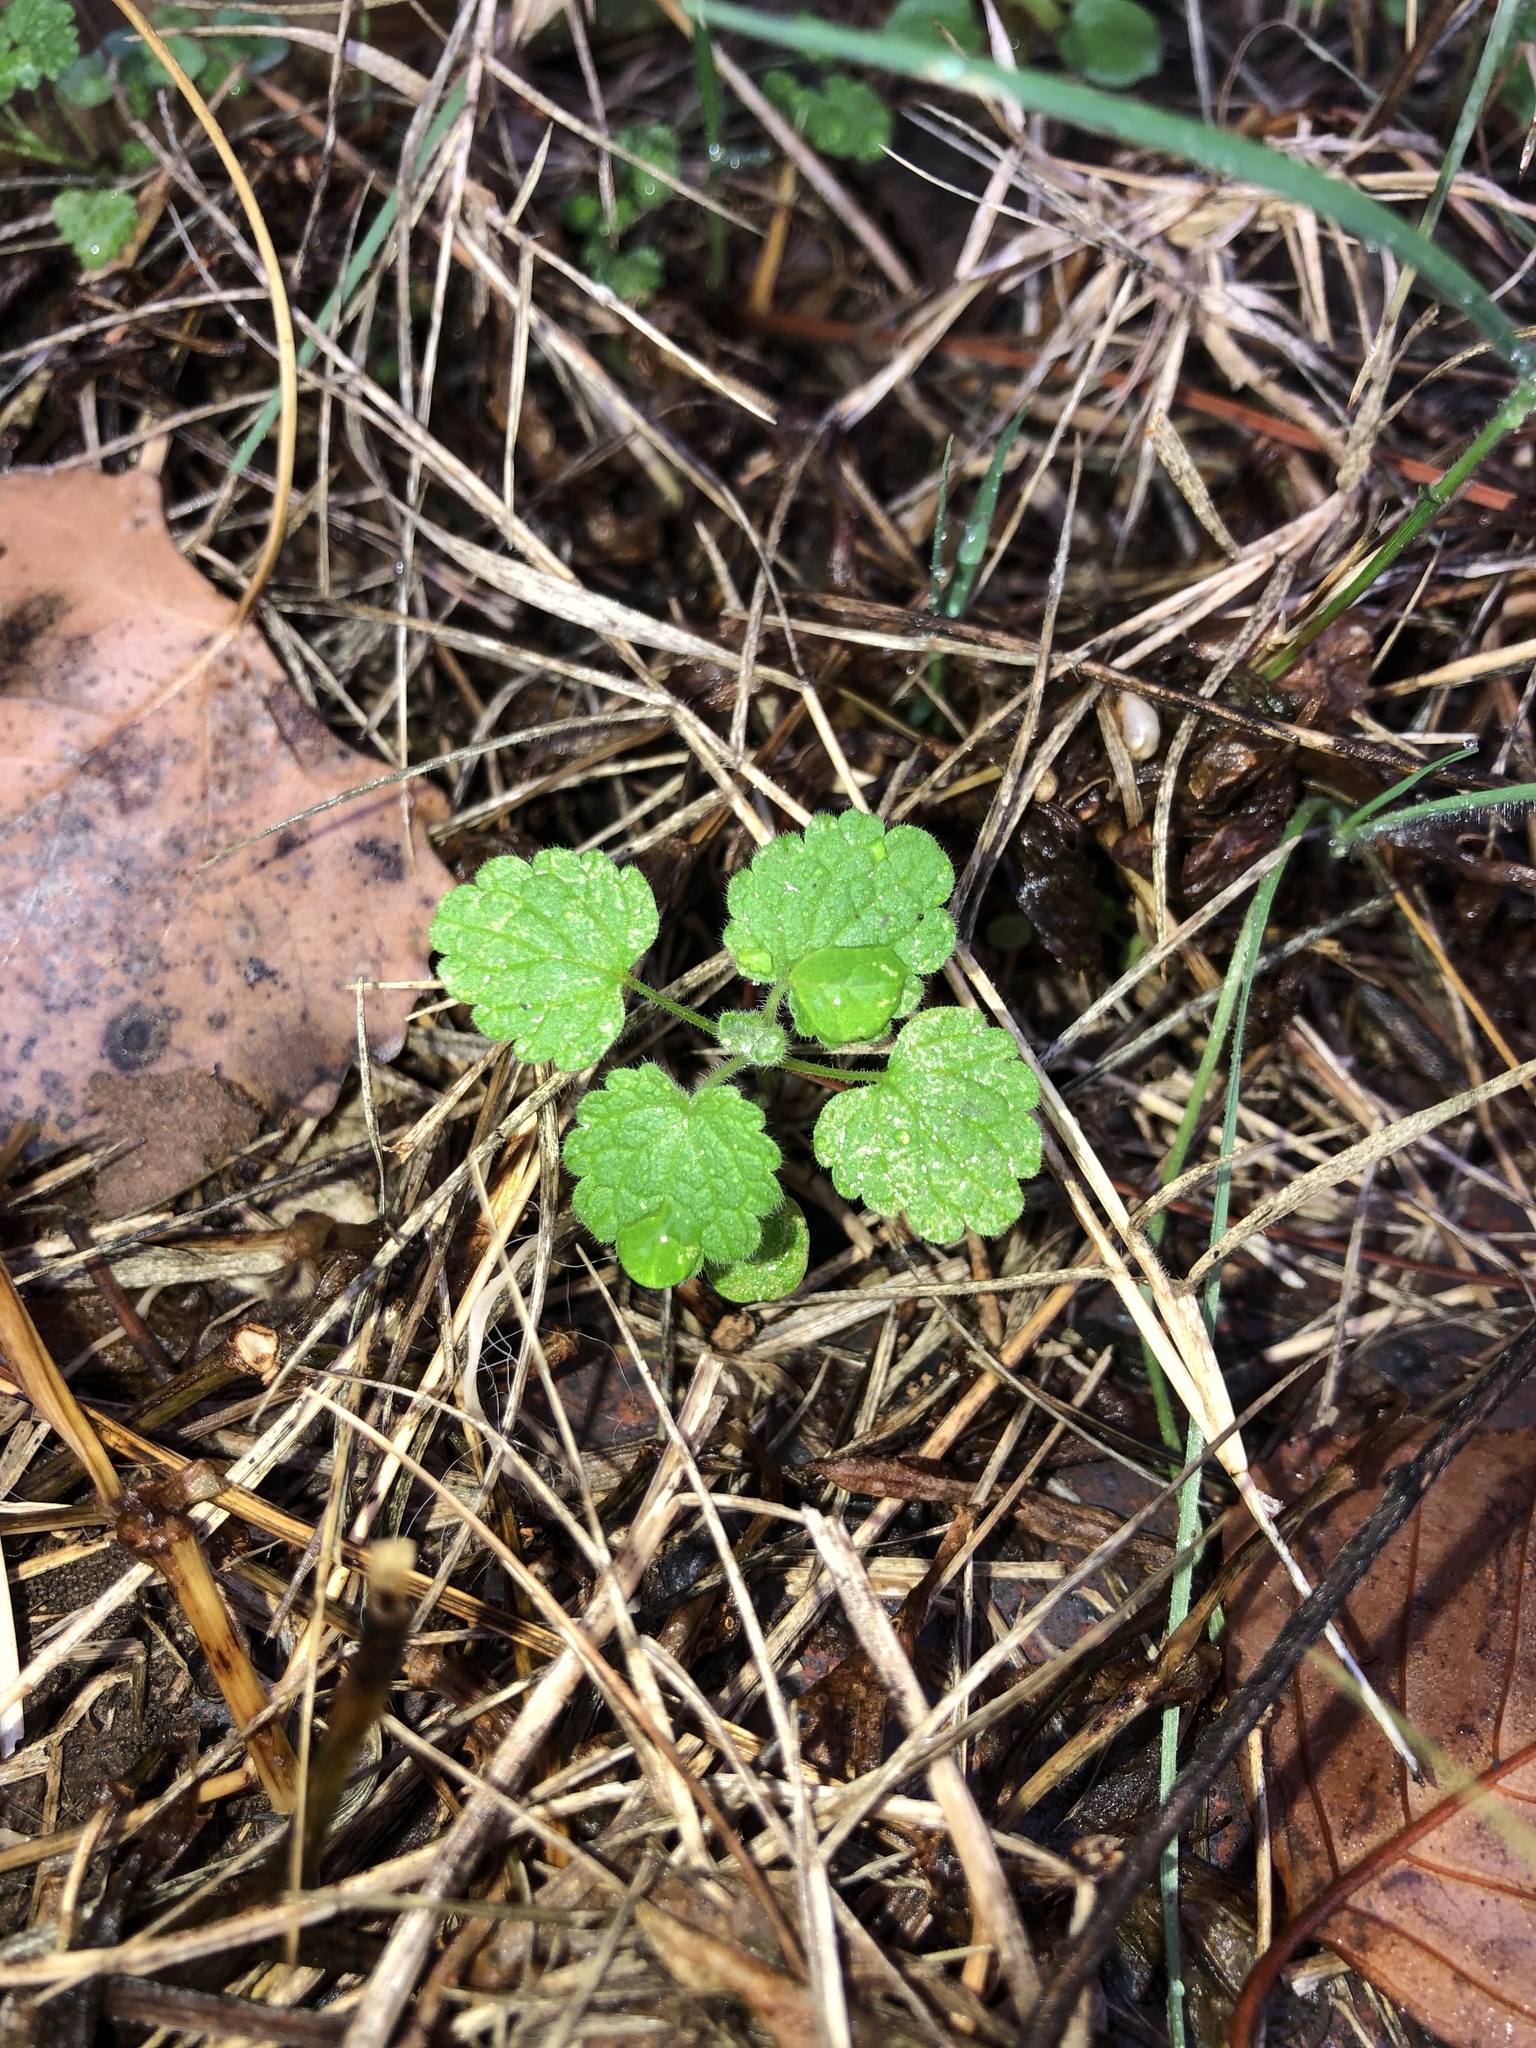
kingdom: Plantae
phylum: Tracheophyta
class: Magnoliopsida
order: Lamiales
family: Lamiaceae
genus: Lamium
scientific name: Lamium purpureum
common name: Red dead-nettle
